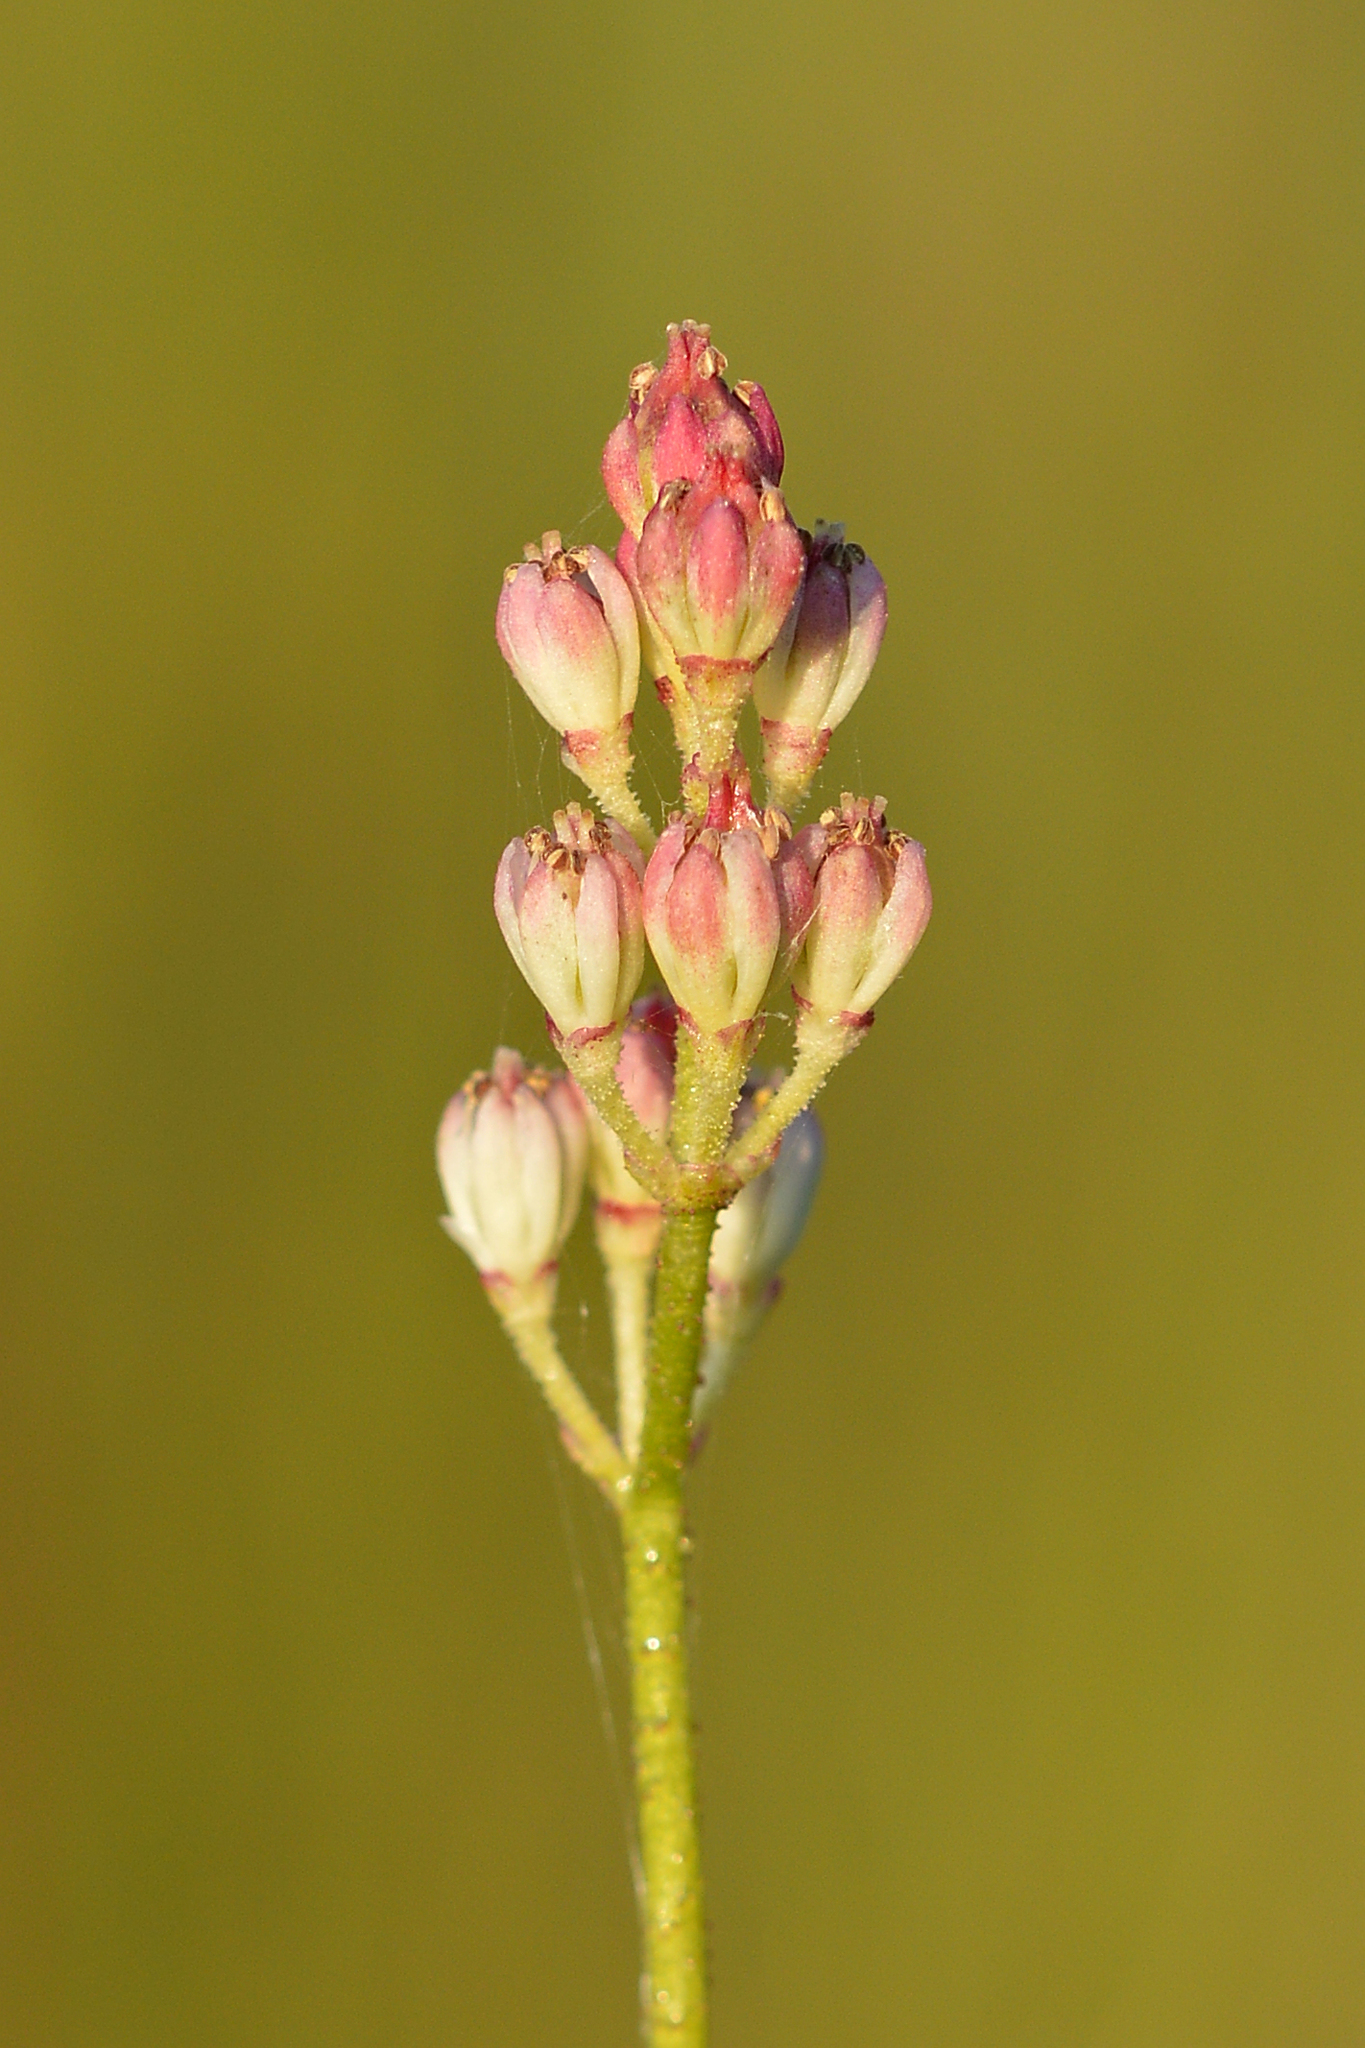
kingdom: Plantae
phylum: Tracheophyta
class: Liliopsida
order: Alismatales
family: Tofieldiaceae
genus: Triantha
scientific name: Triantha glutinosa
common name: Glutinous tofieldia
